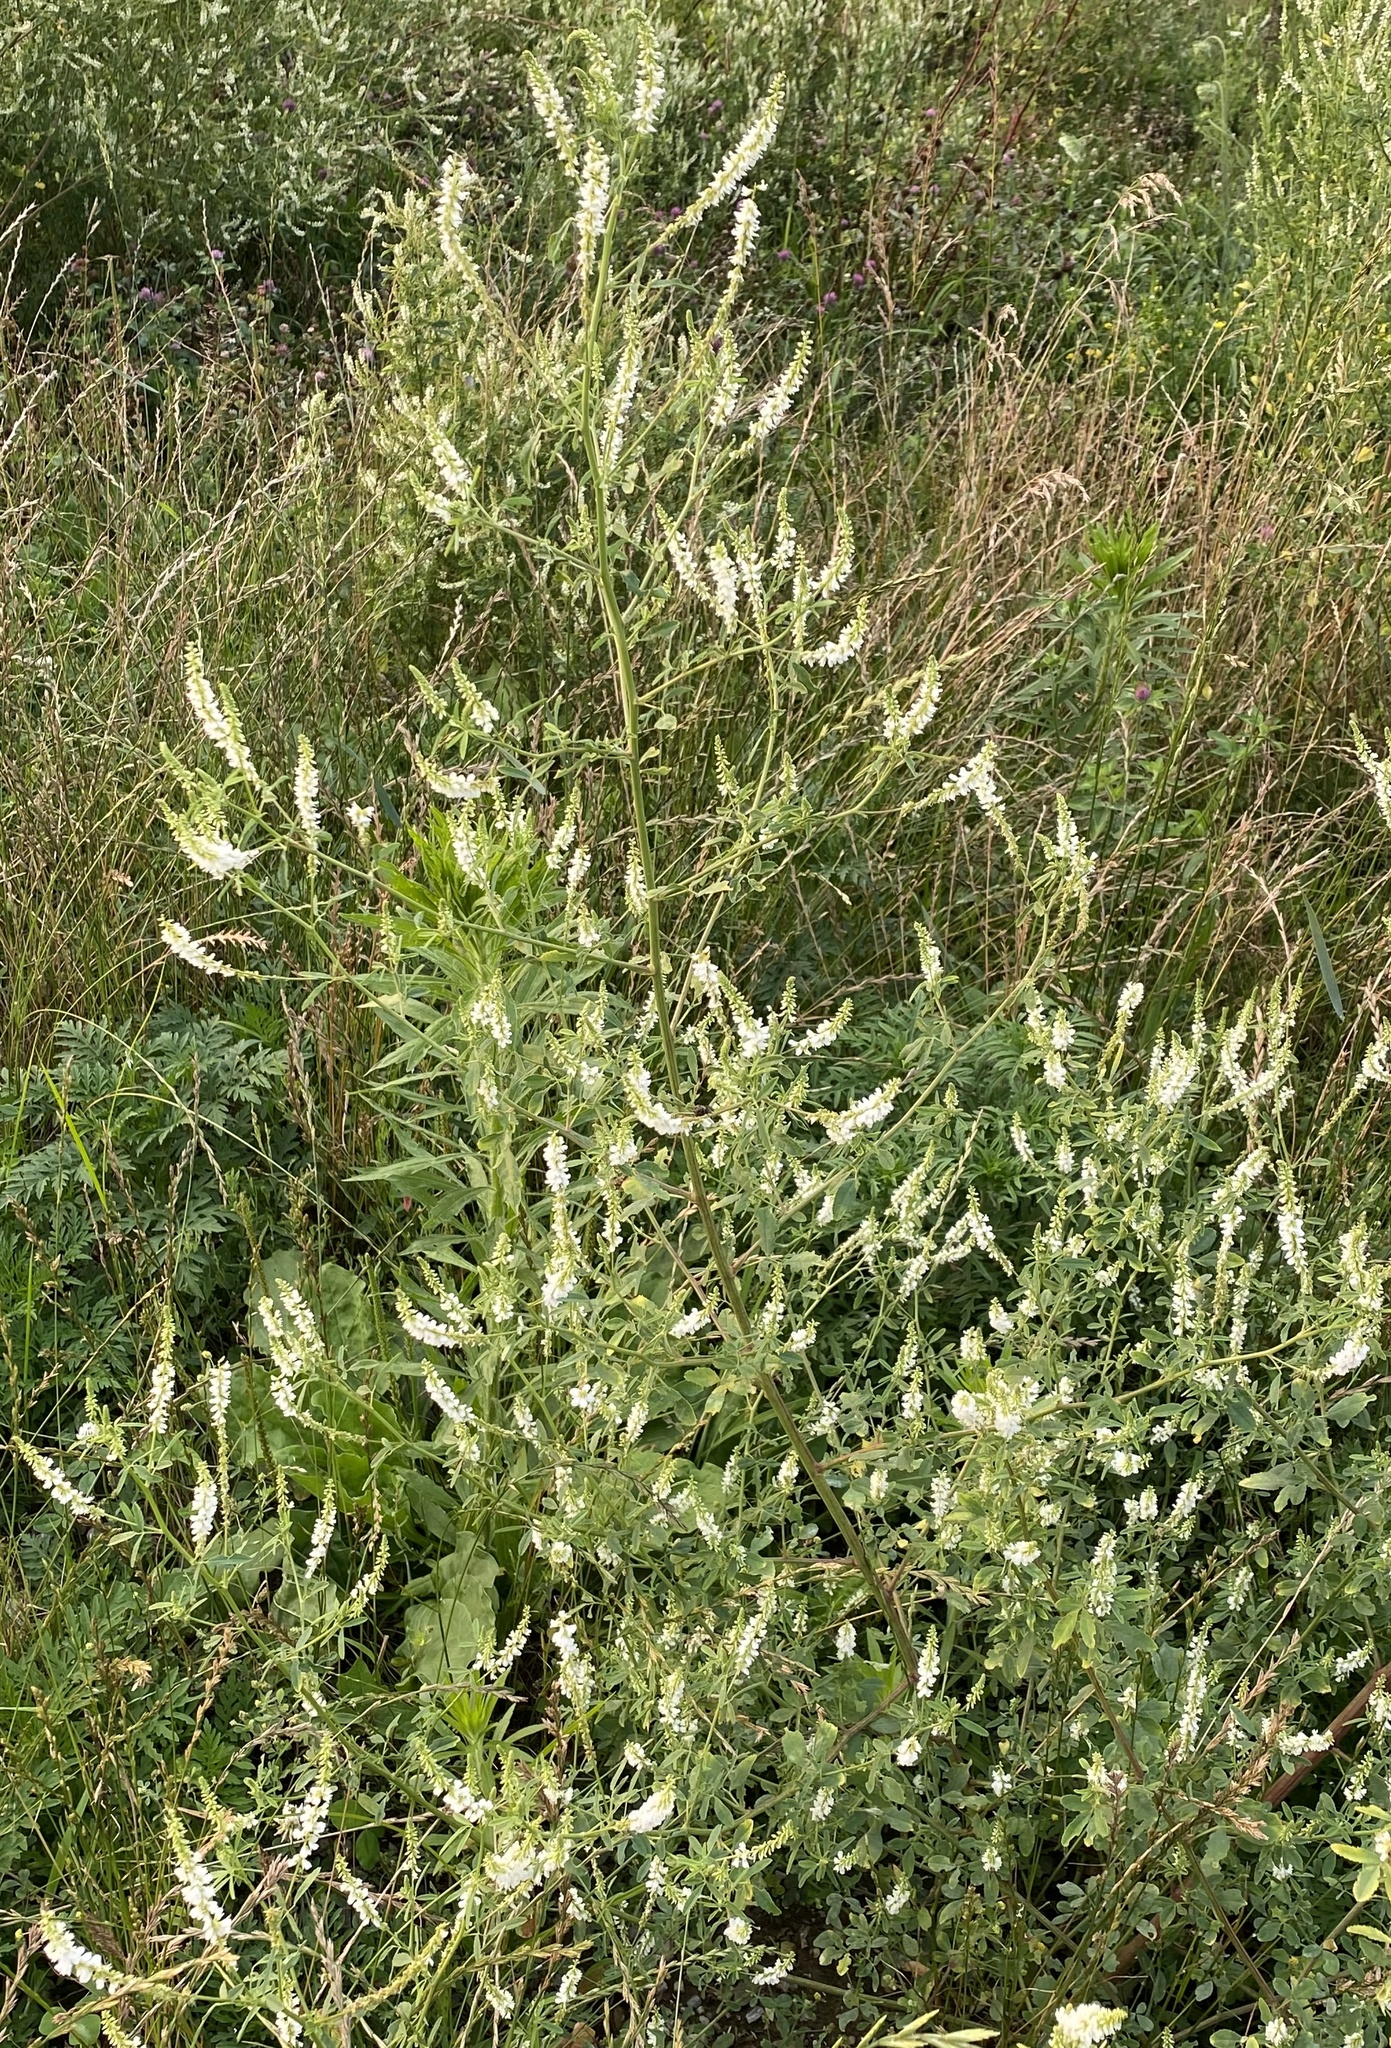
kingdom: Plantae
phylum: Tracheophyta
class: Magnoliopsida
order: Fabales
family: Fabaceae
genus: Melilotus
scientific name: Melilotus albus
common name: White melilot
